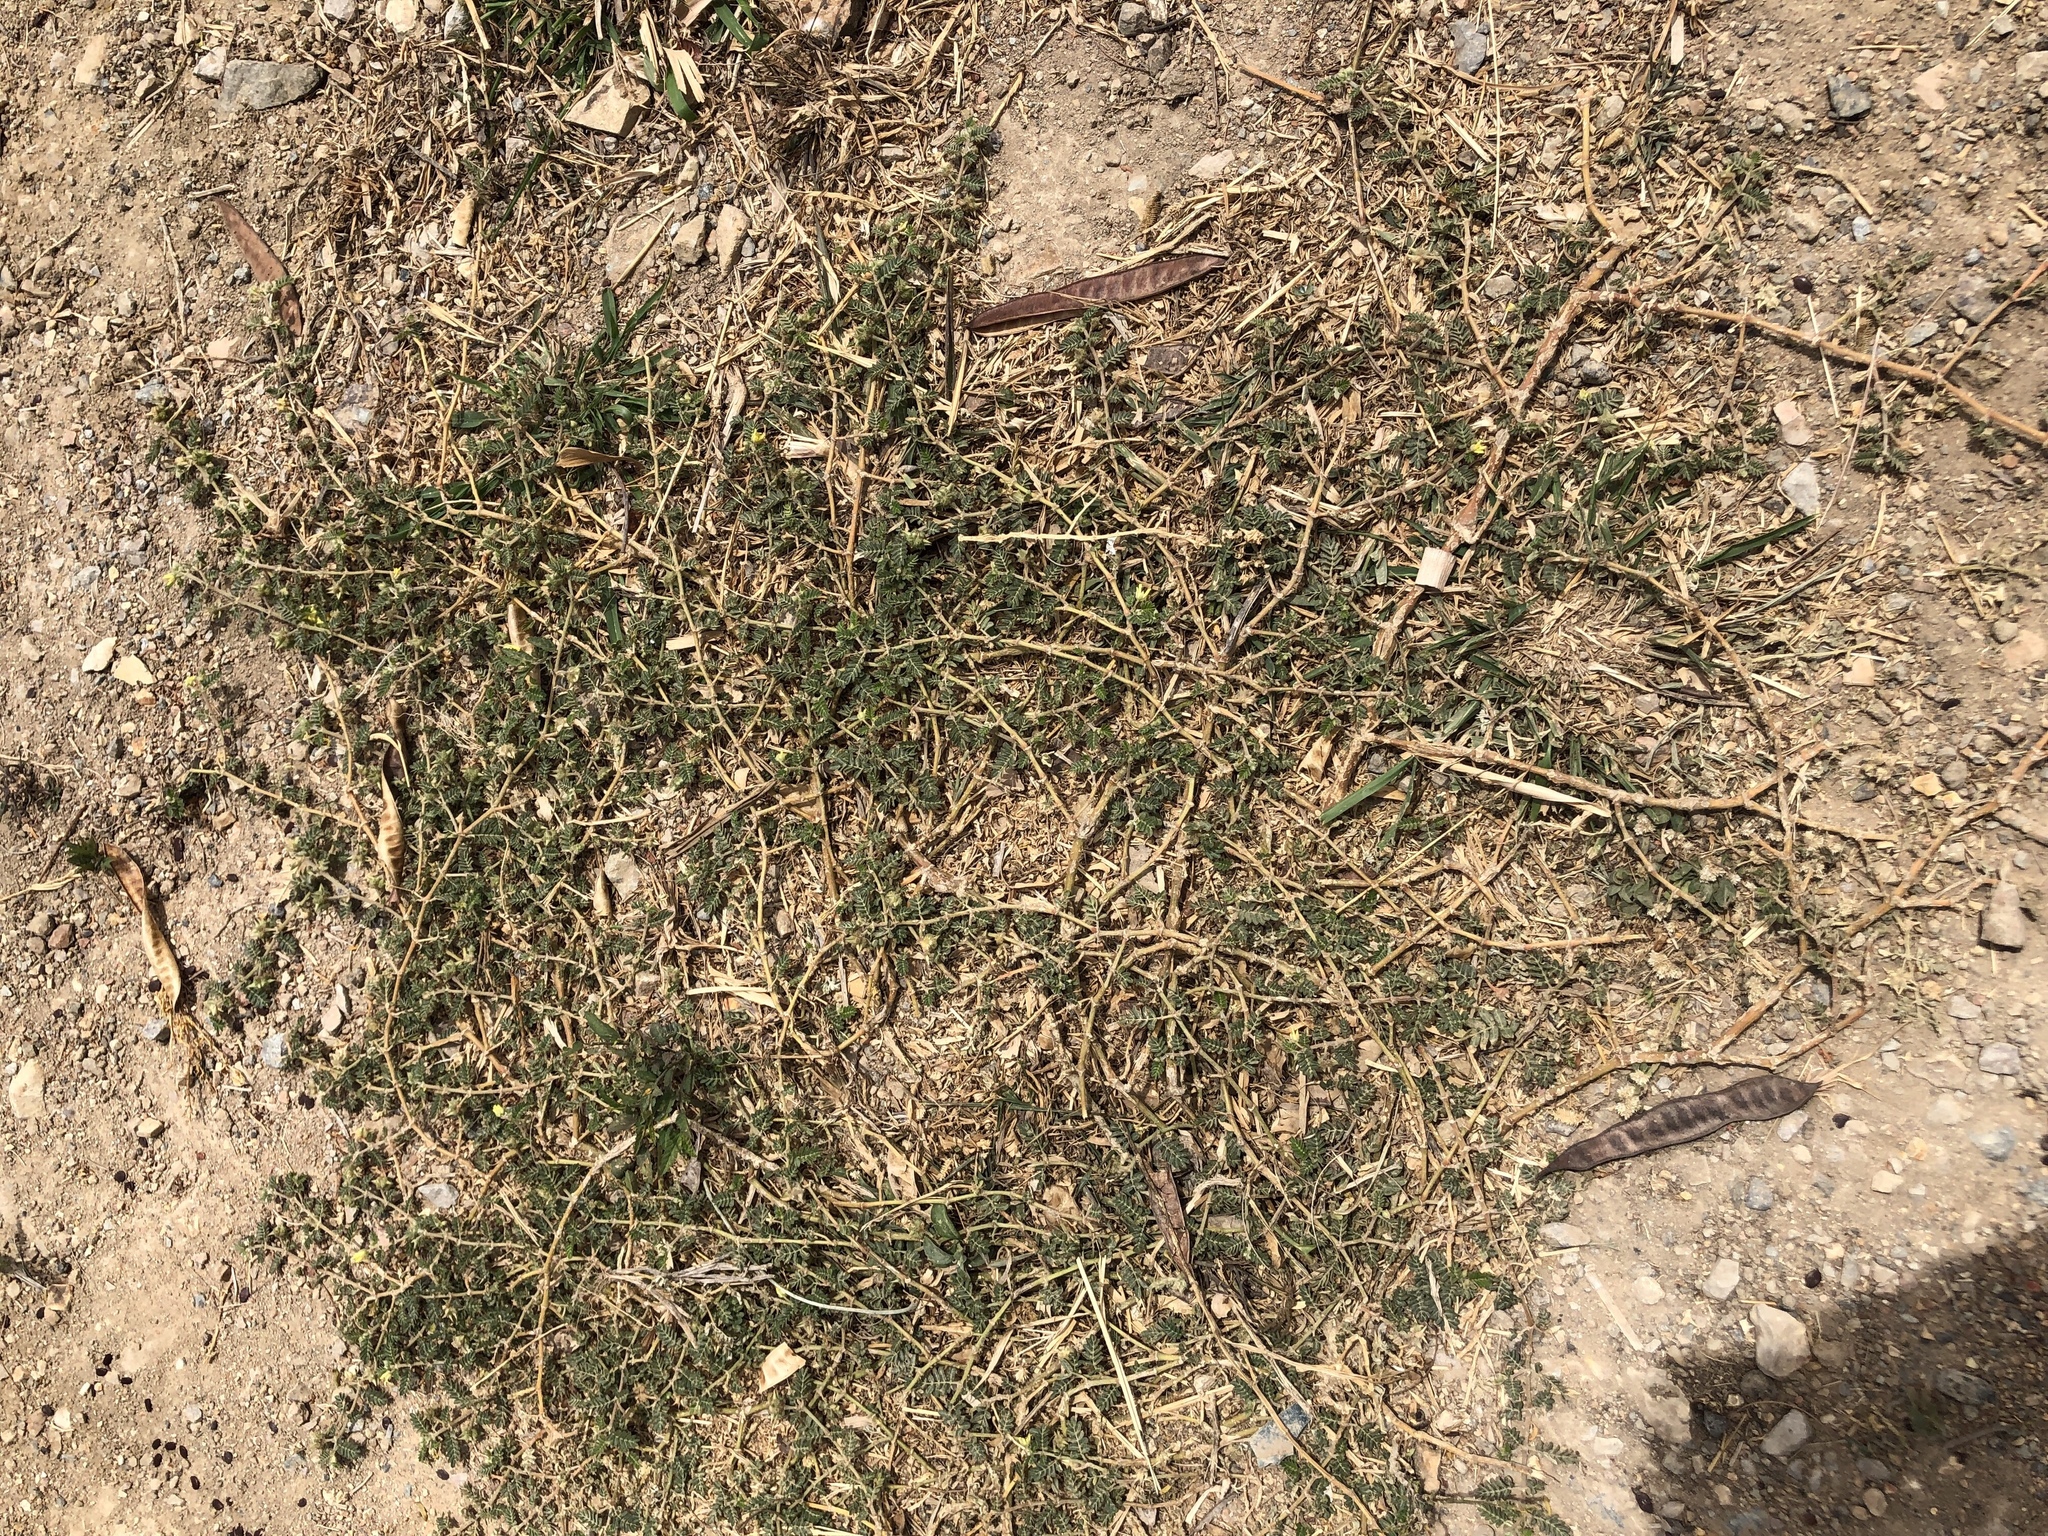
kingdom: Plantae
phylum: Tracheophyta
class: Magnoliopsida
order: Zygophyllales
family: Zygophyllaceae
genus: Tribulus
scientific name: Tribulus terrestris
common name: Puncturevine
